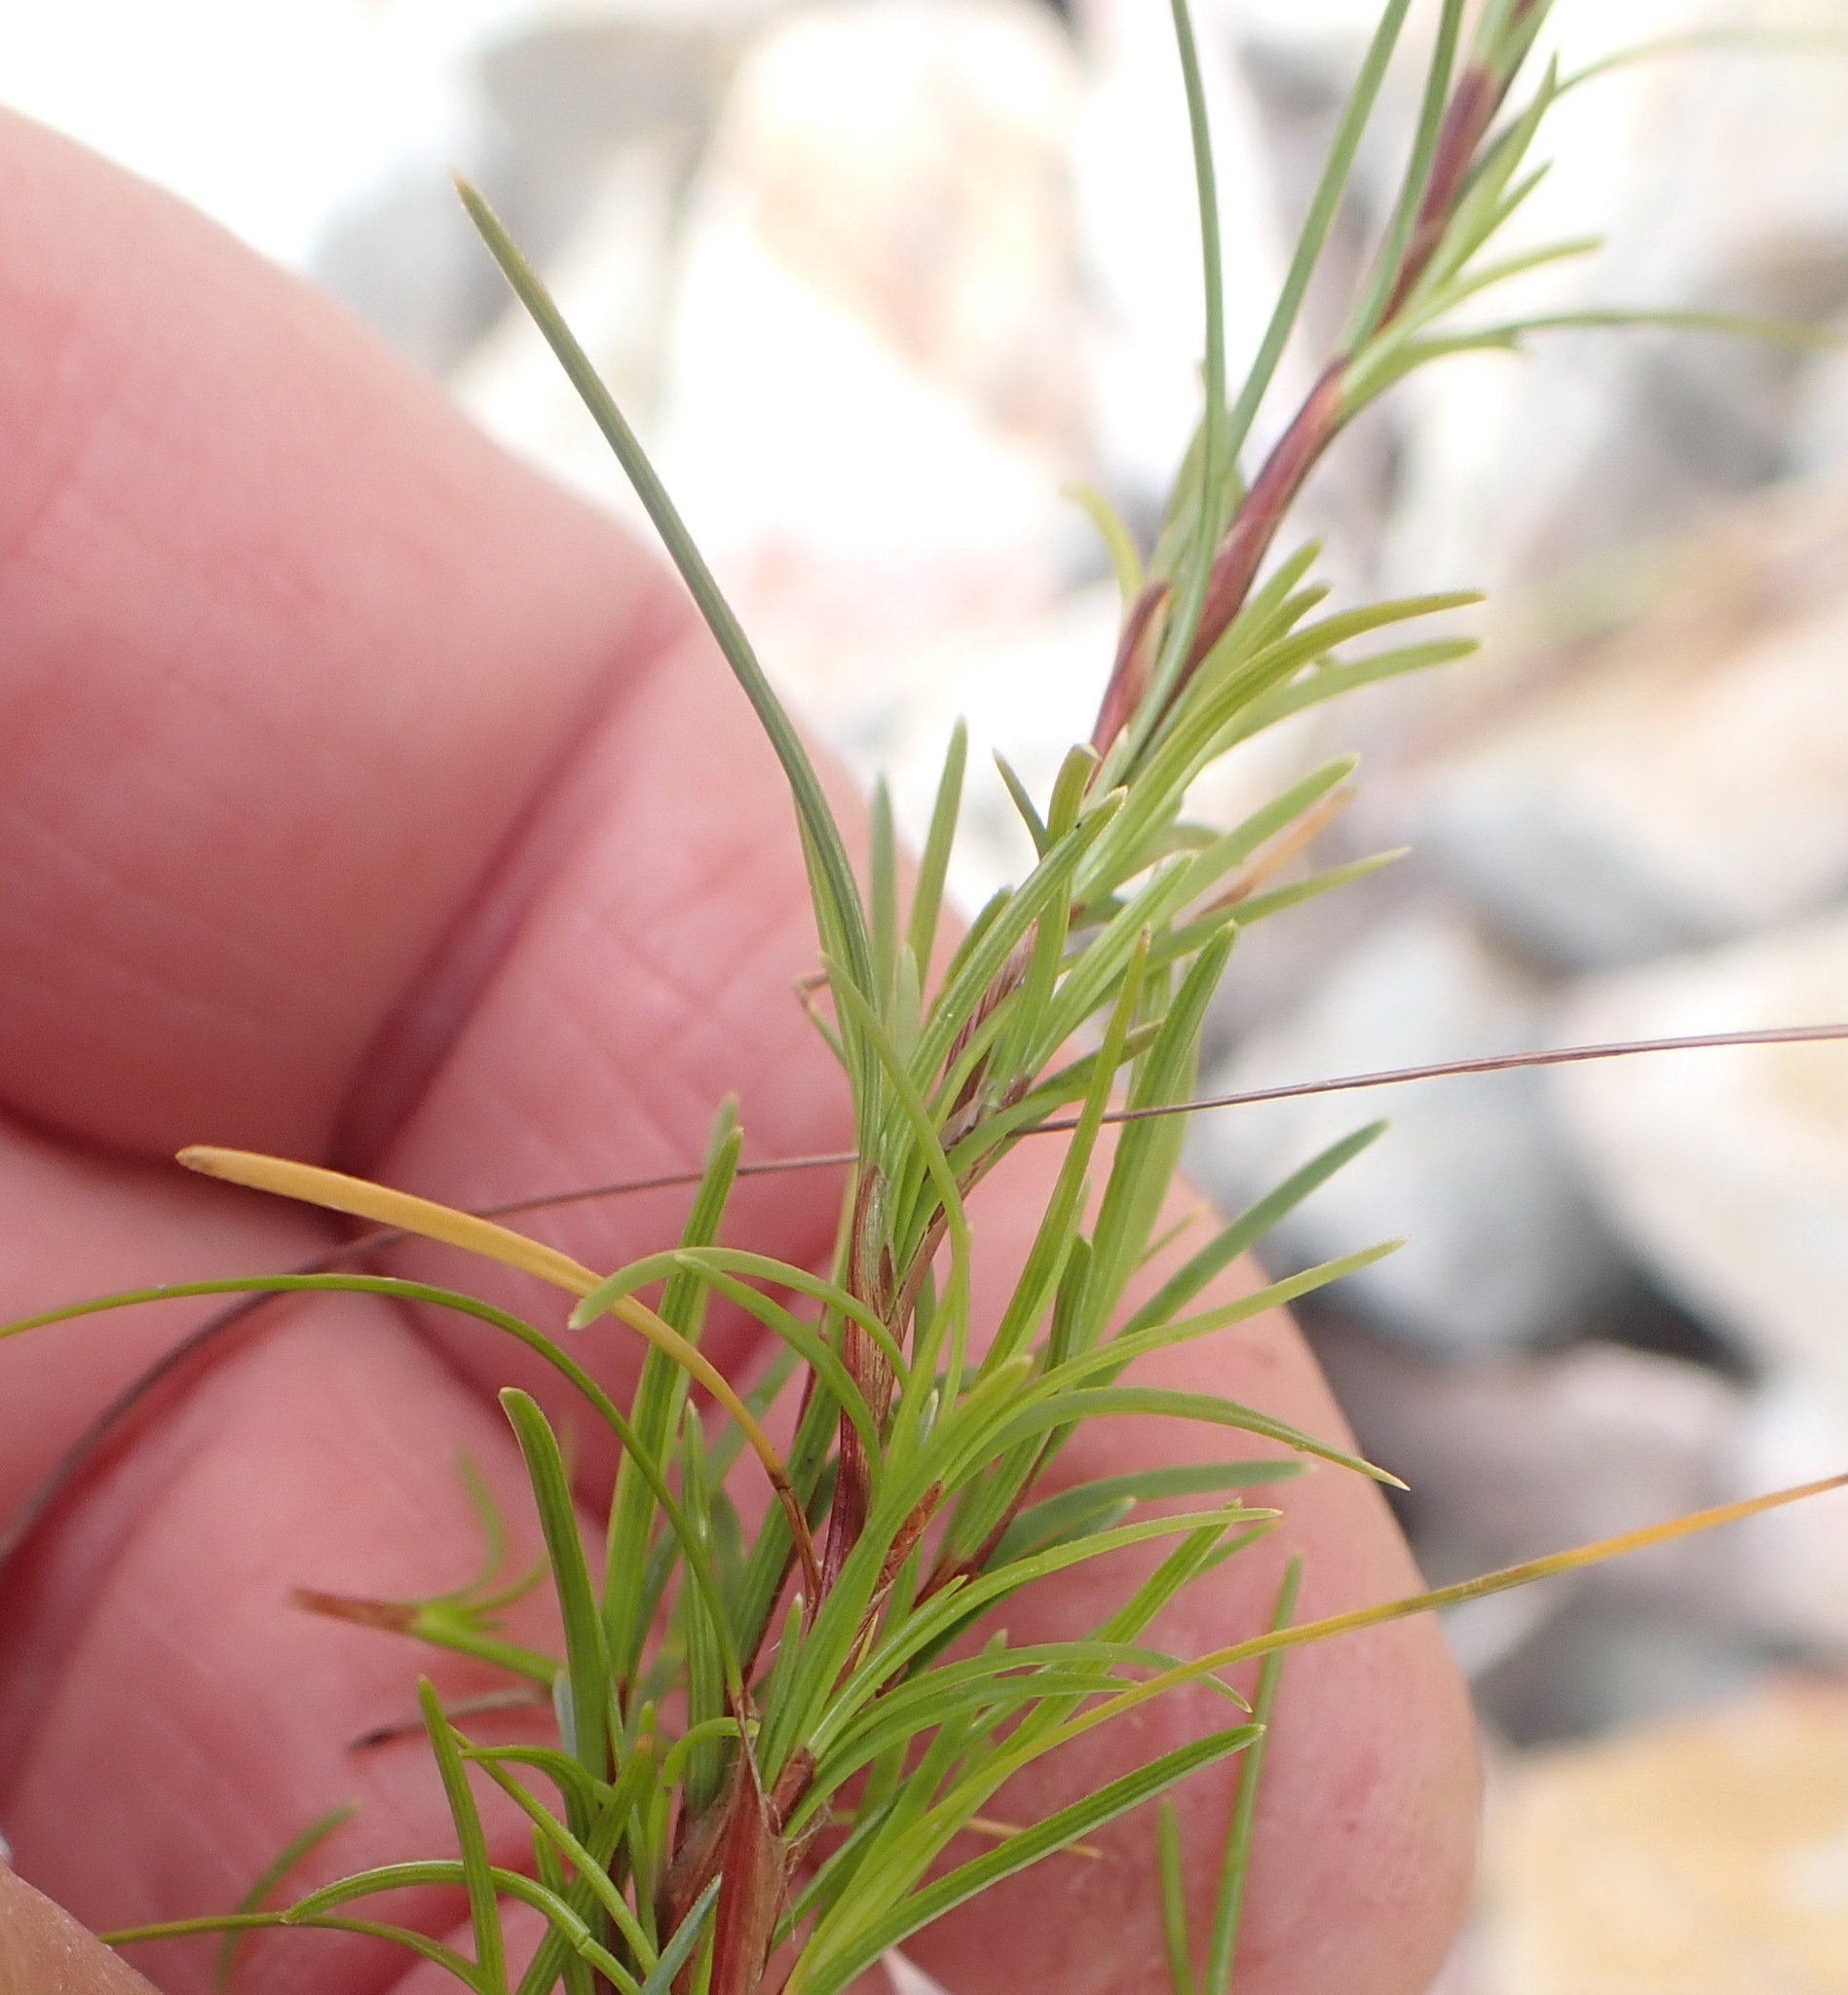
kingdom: Plantae
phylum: Tracheophyta
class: Liliopsida
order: Poales
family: Cyperaceae
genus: Ficinia
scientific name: Ficinia ramosissima
